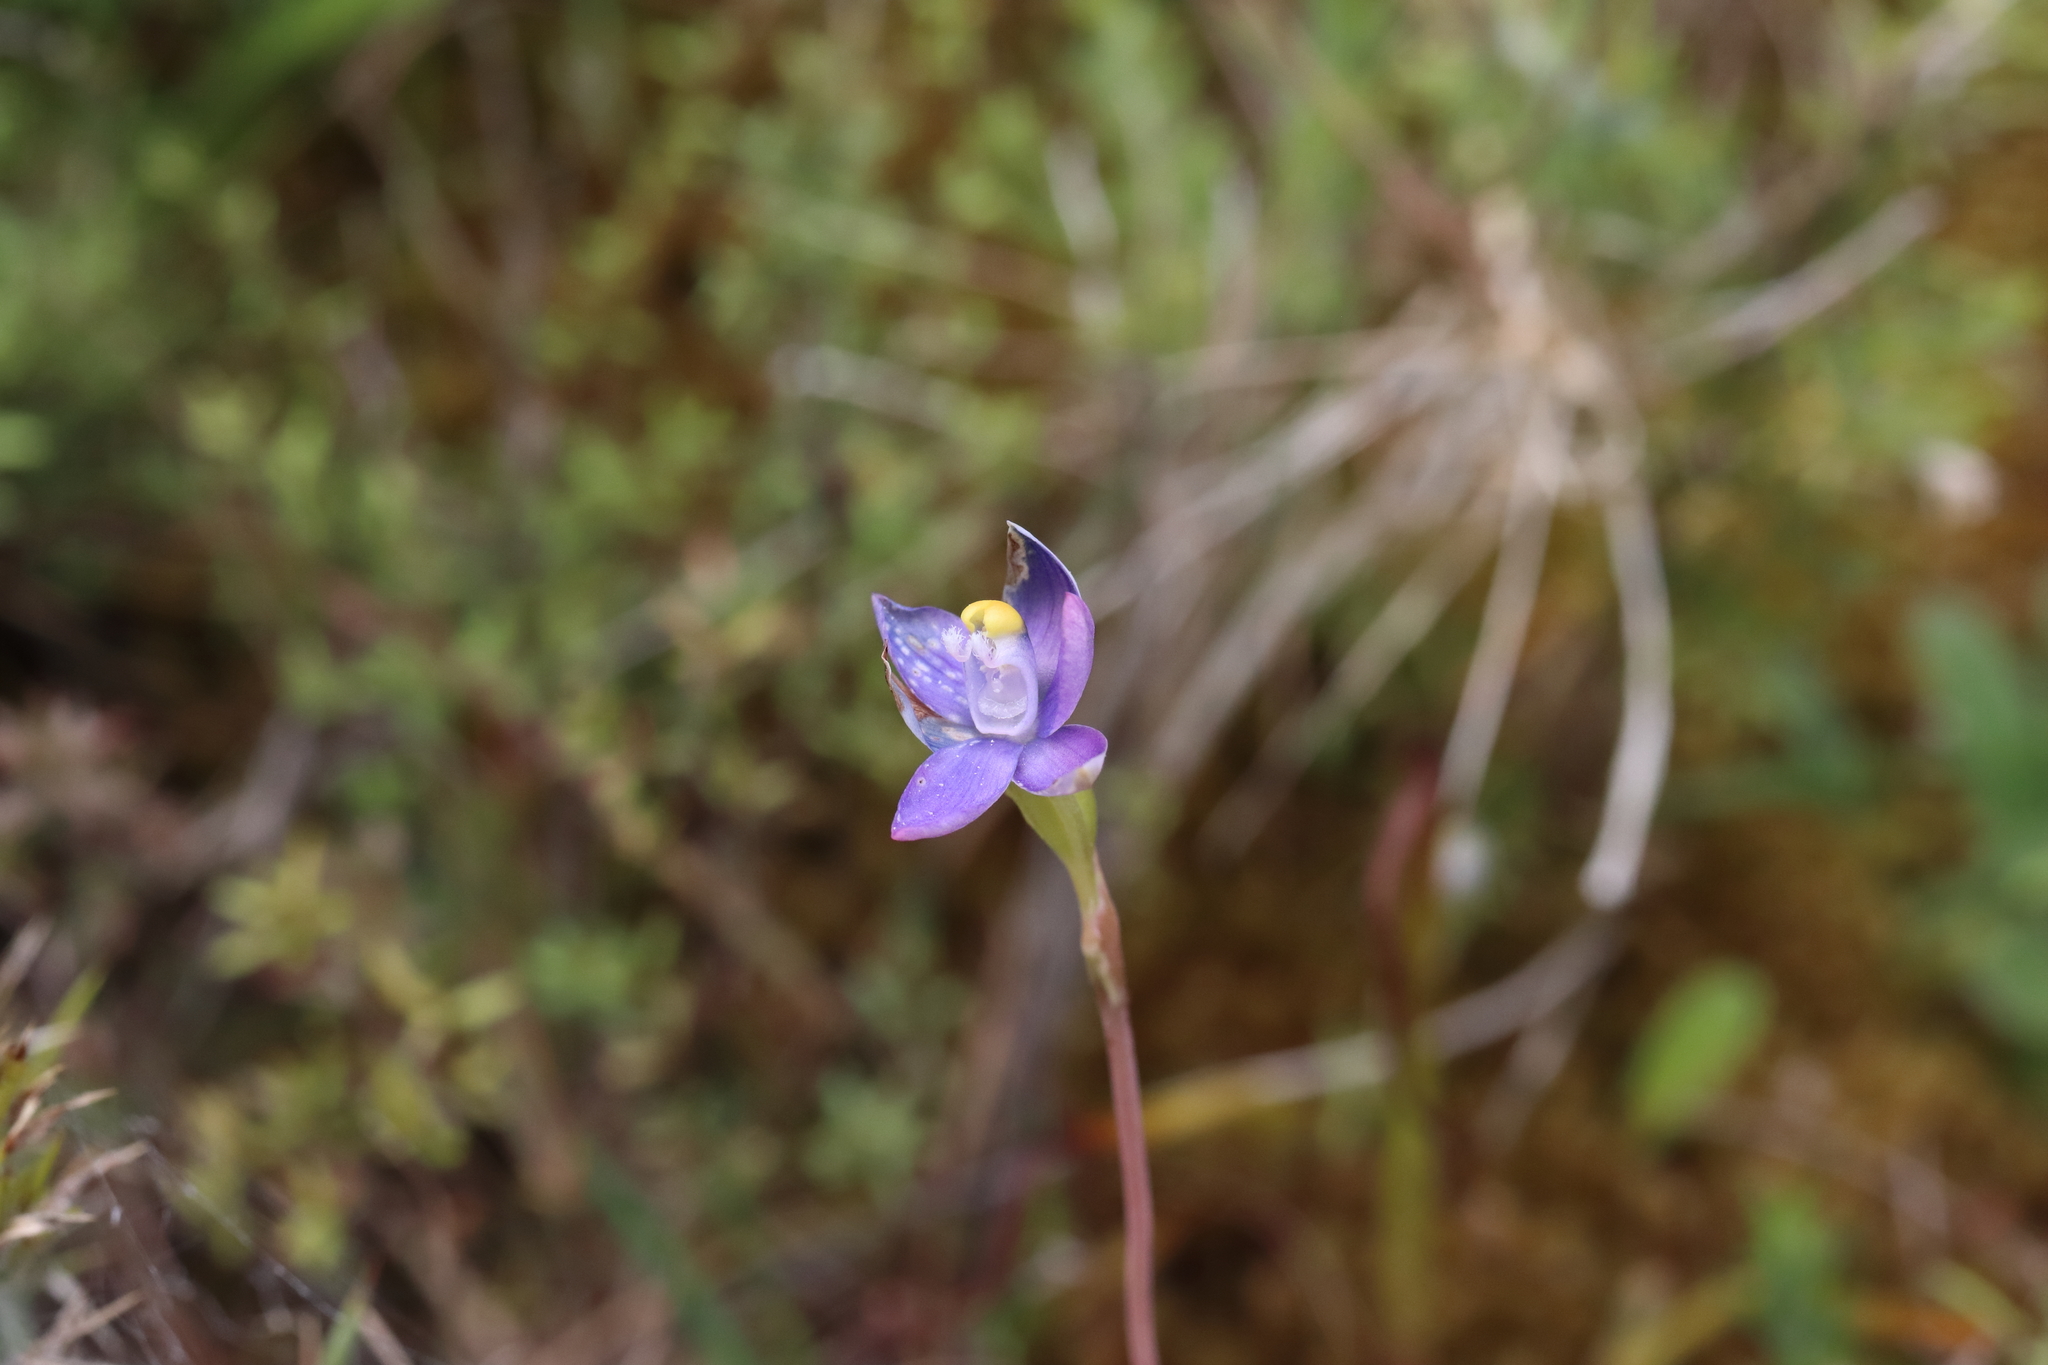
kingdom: Plantae
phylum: Tracheophyta
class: Liliopsida
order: Asparagales
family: Orchidaceae
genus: Thelymitra
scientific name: Thelymitra pauciflora
